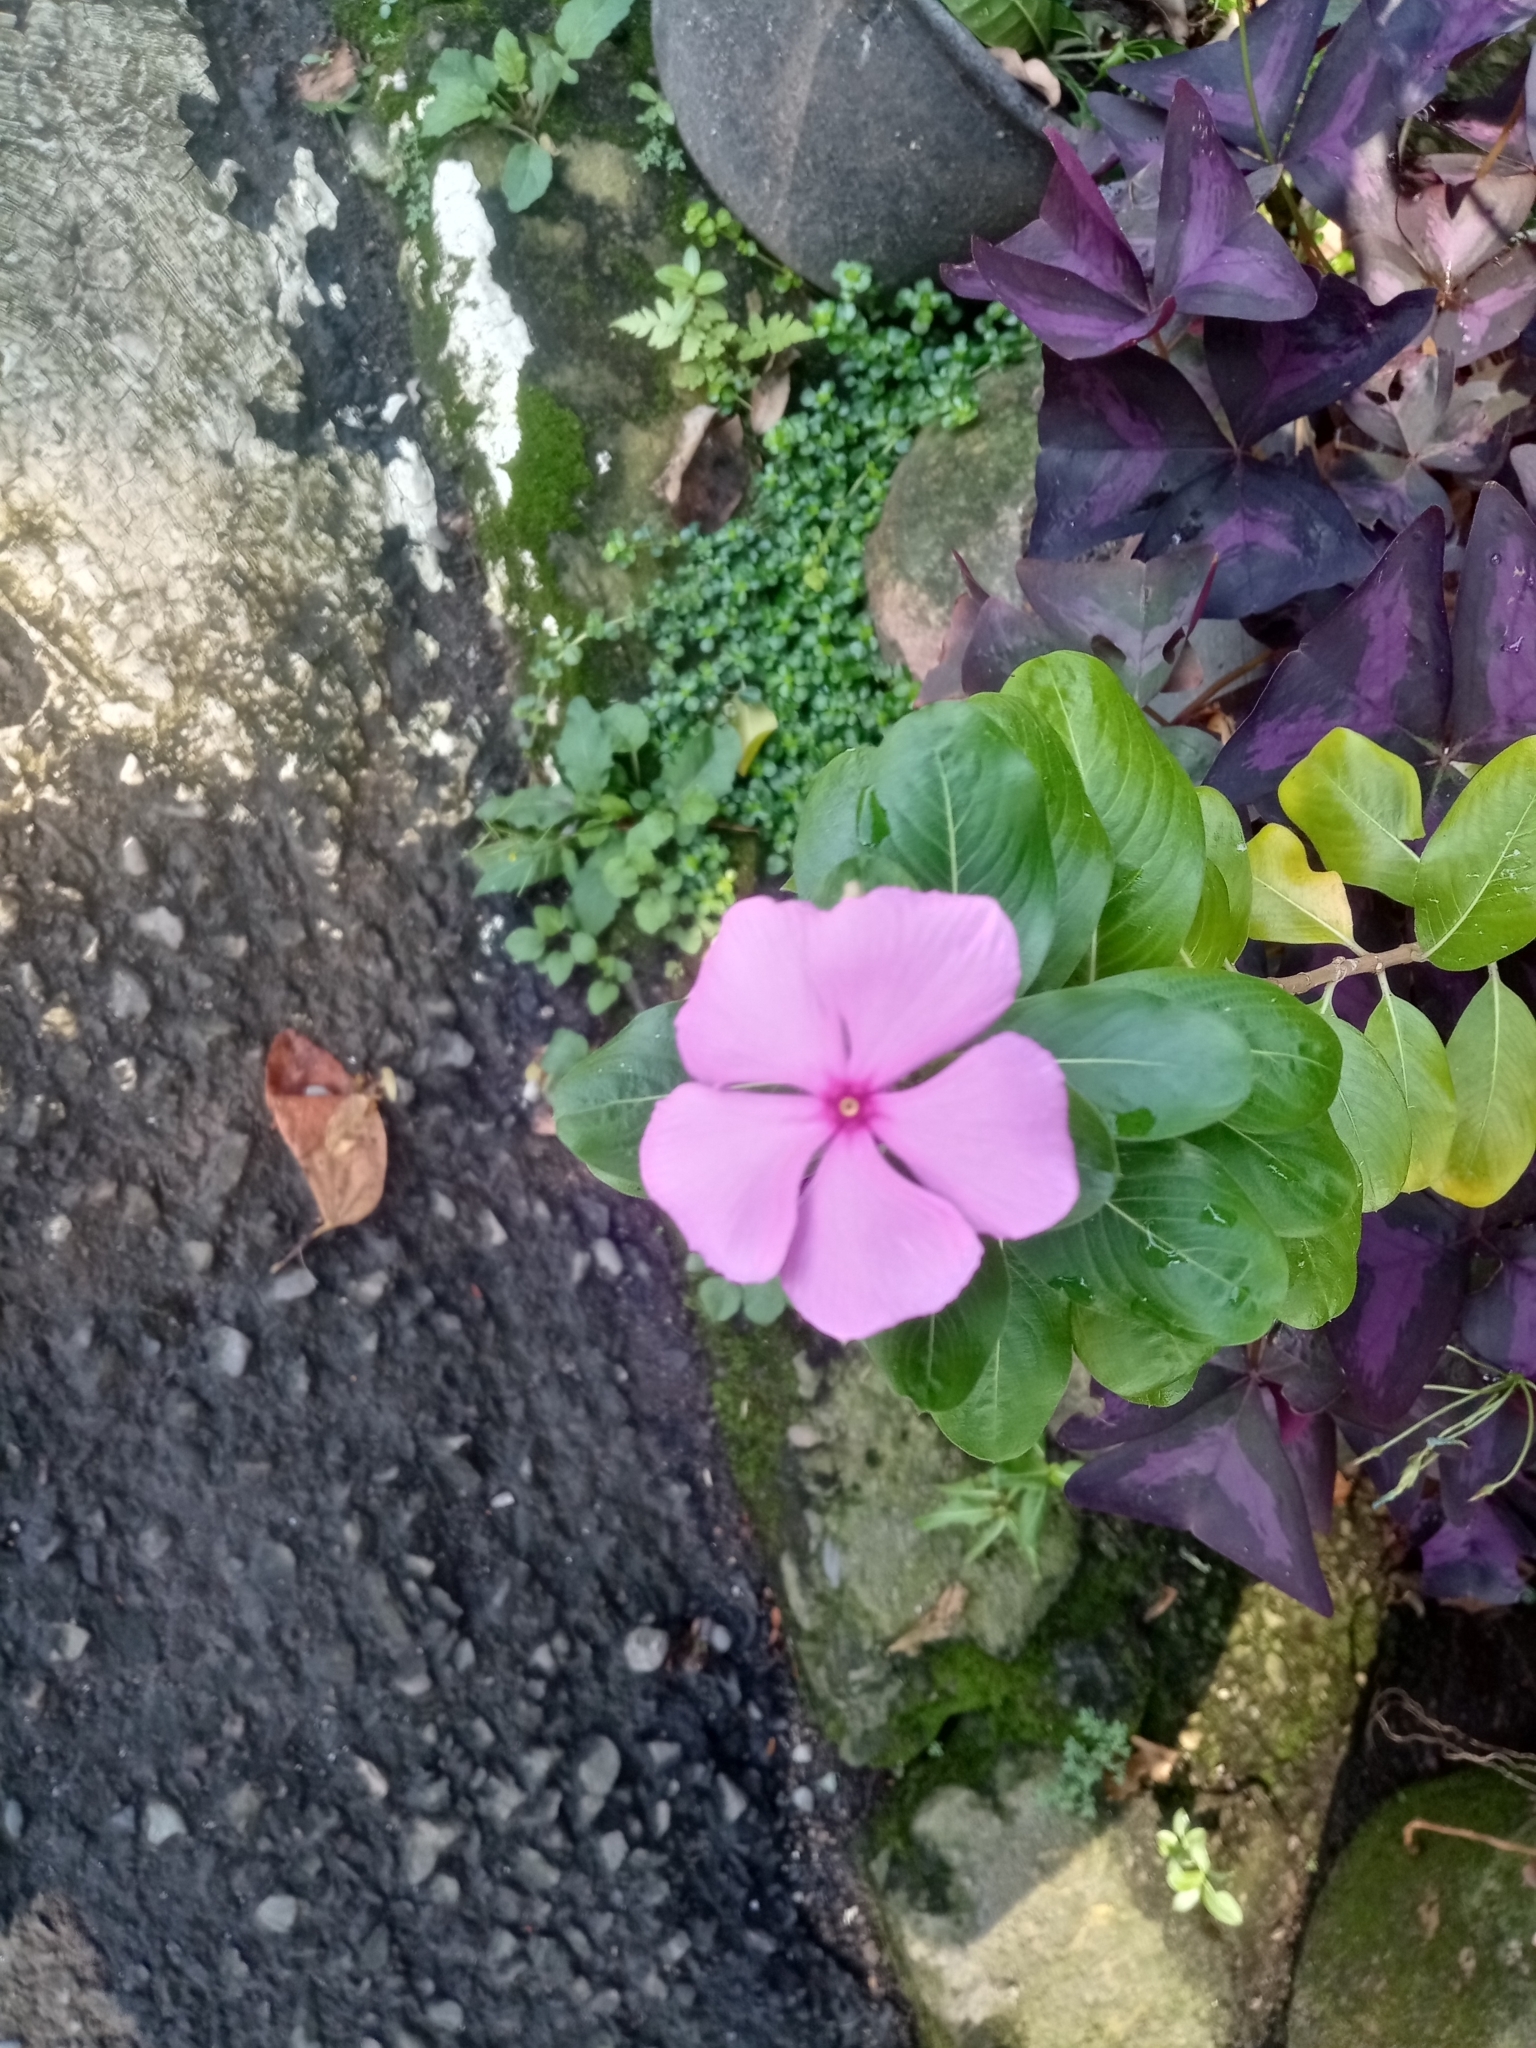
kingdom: Plantae
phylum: Tracheophyta
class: Magnoliopsida
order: Gentianales
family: Apocynaceae
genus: Catharanthus
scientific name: Catharanthus roseus
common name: Madagascar periwinkle
